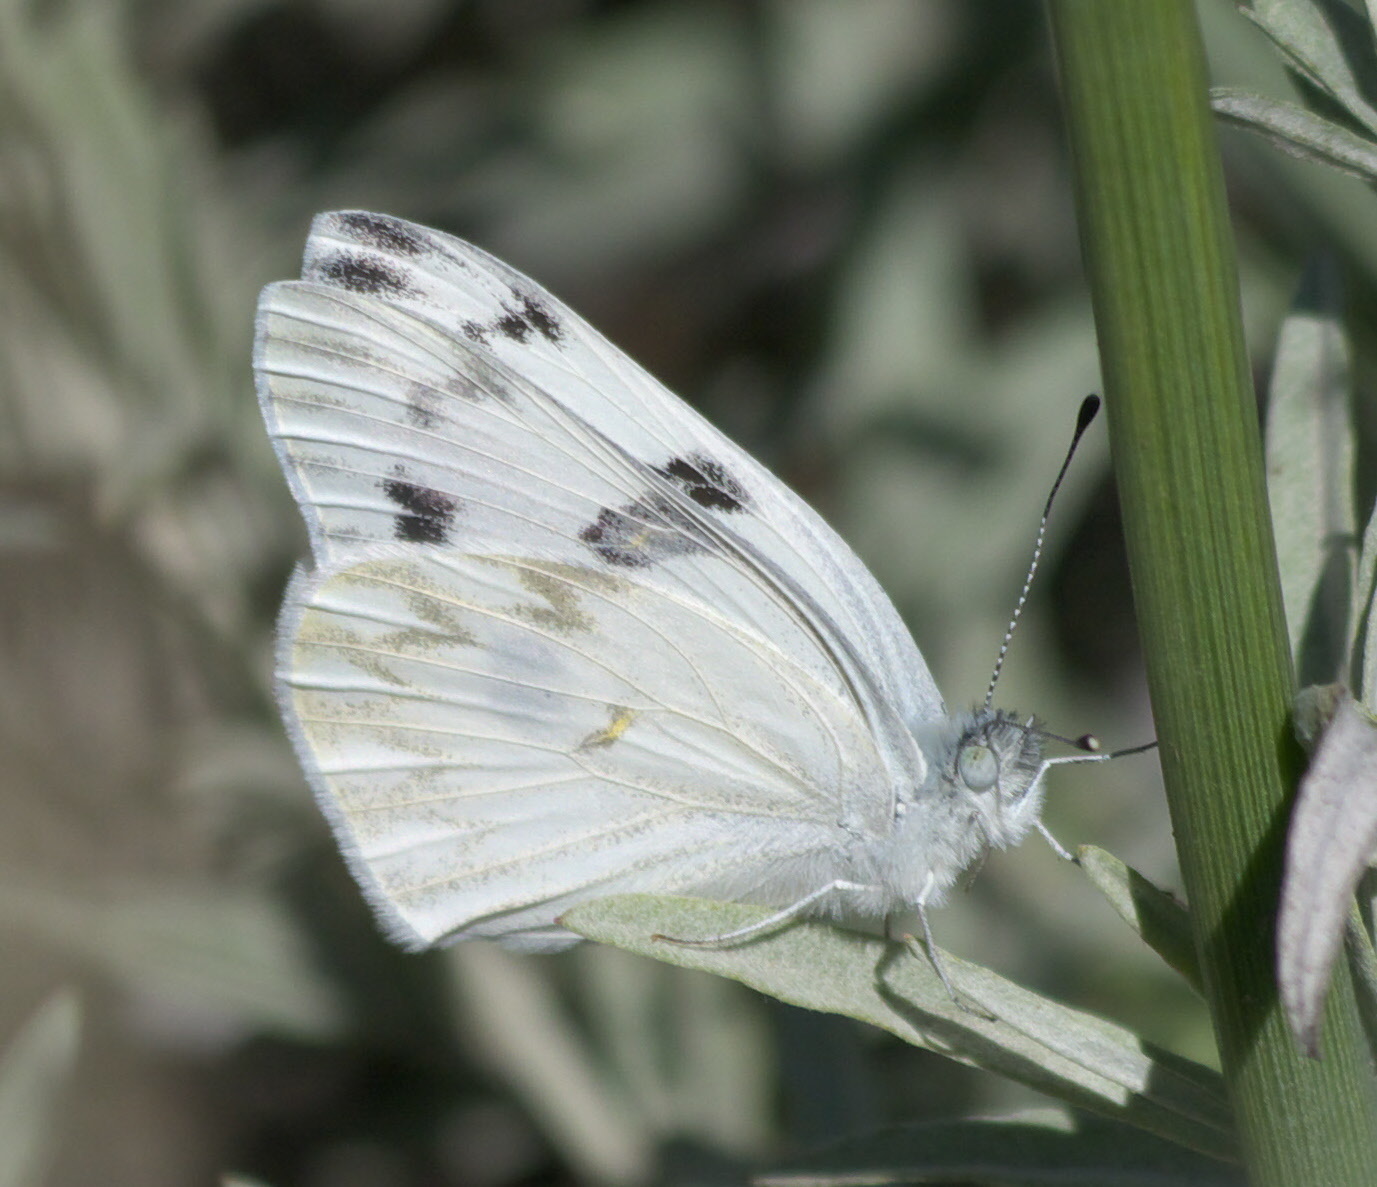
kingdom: Animalia
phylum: Arthropoda
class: Insecta
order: Lepidoptera
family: Pieridae
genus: Pontia
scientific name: Pontia protodice
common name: Checkered white
